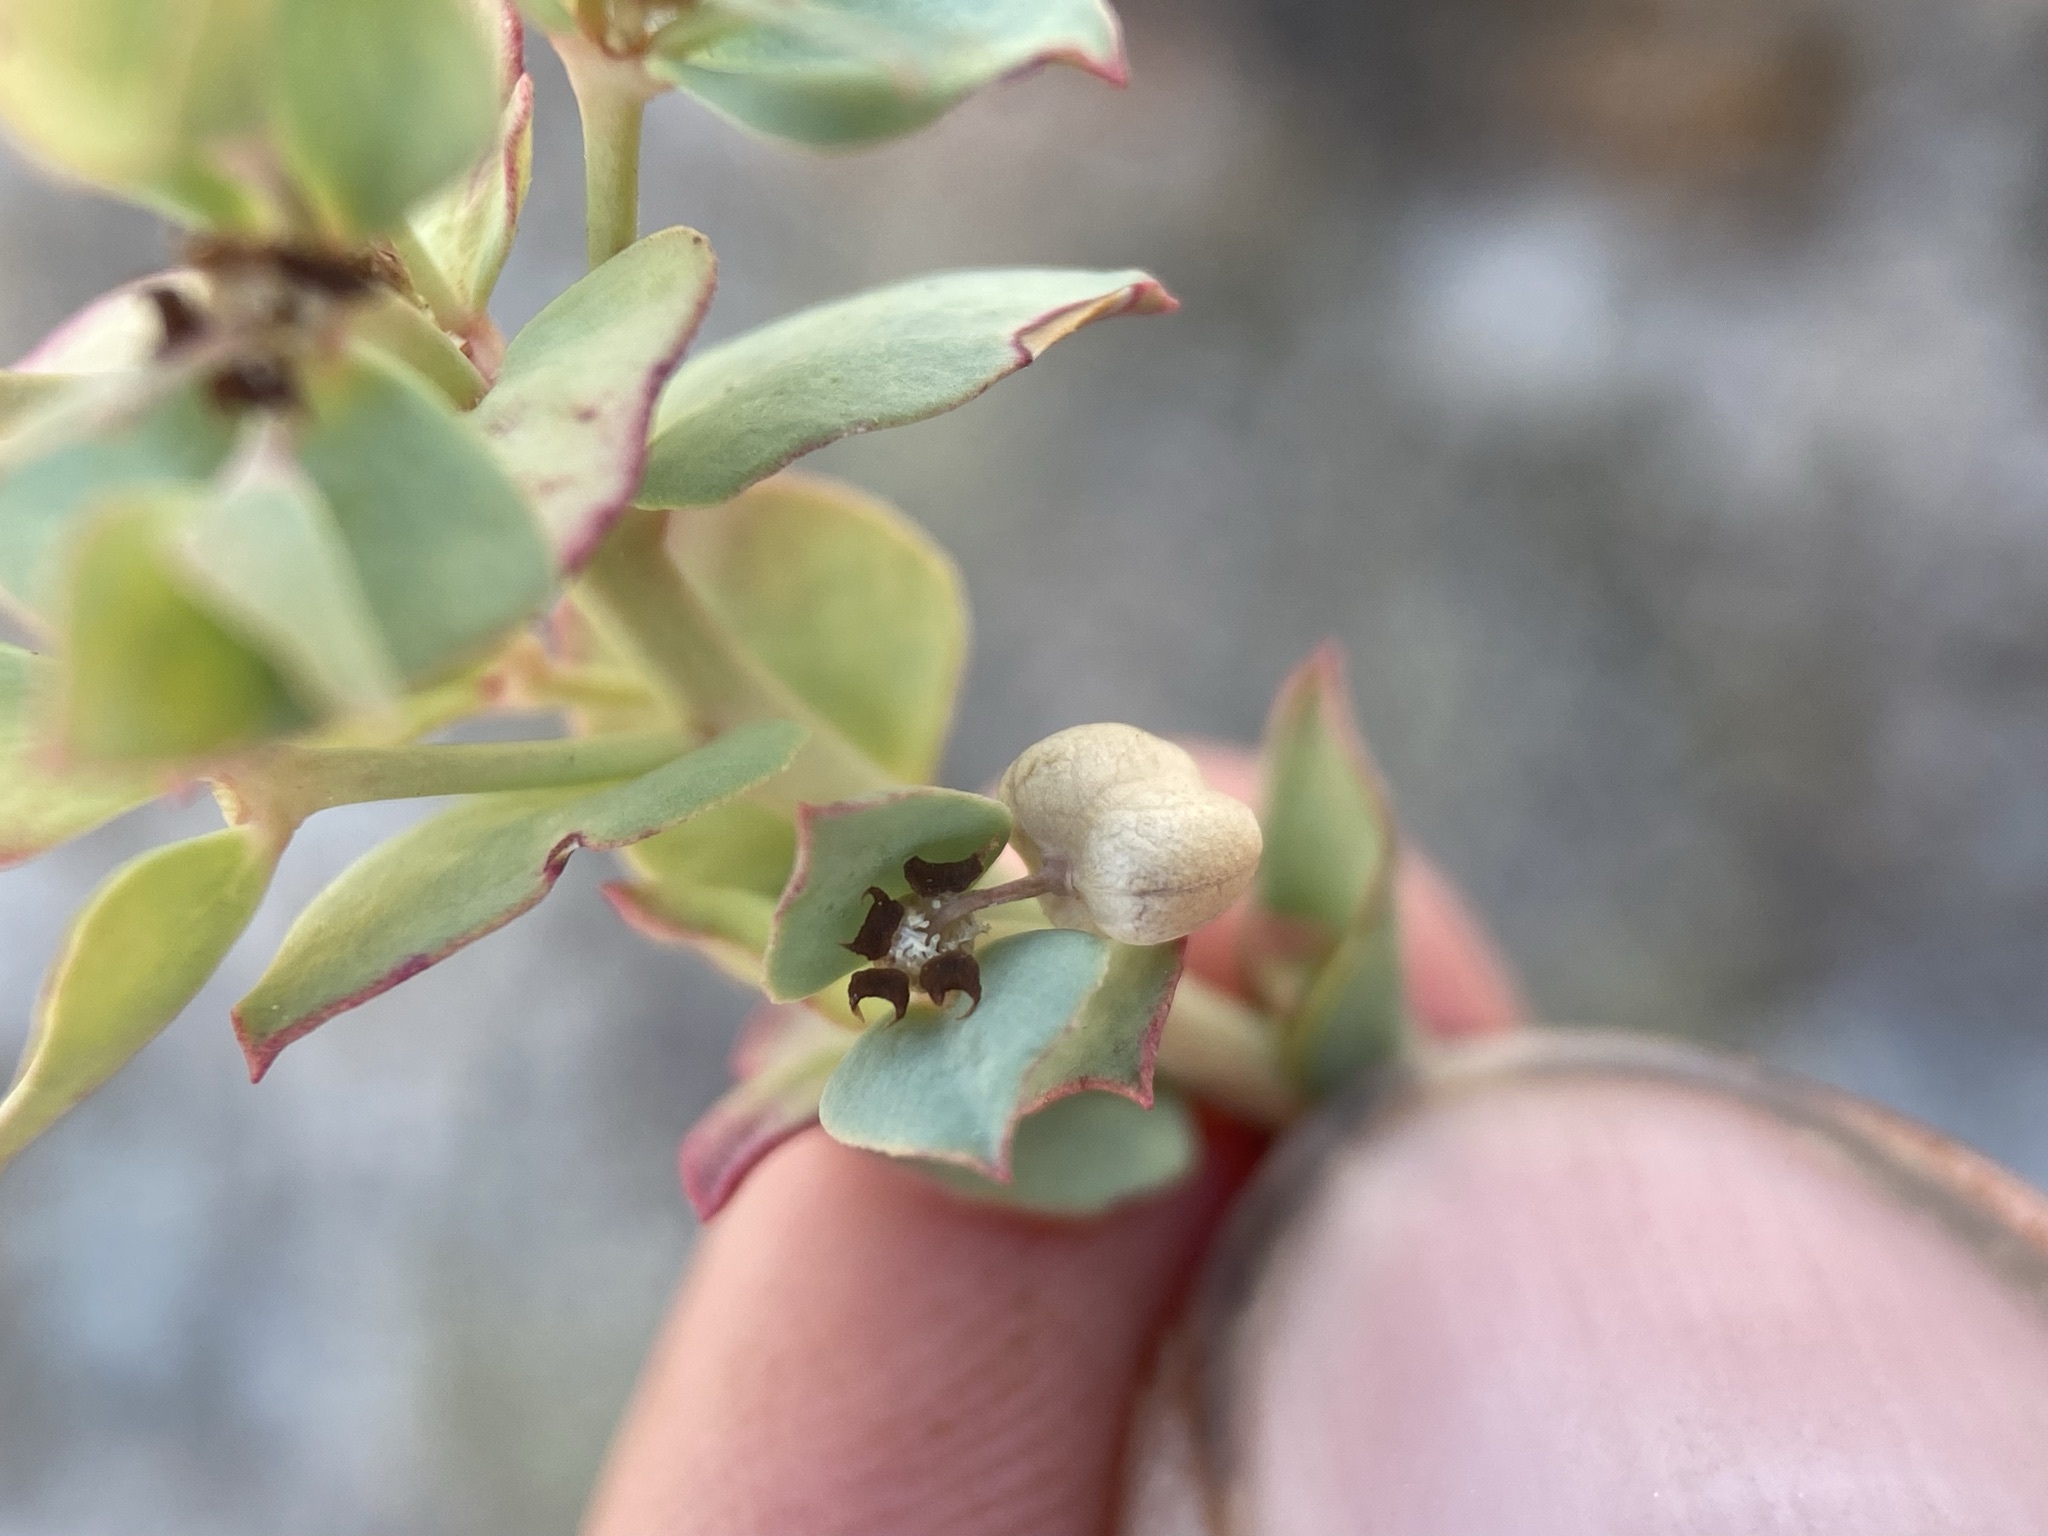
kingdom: Plantae
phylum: Tracheophyta
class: Magnoliopsida
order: Malpighiales
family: Euphorbiaceae
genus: Euphorbia
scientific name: Euphorbia brachycera
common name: Shorthorn spurge
